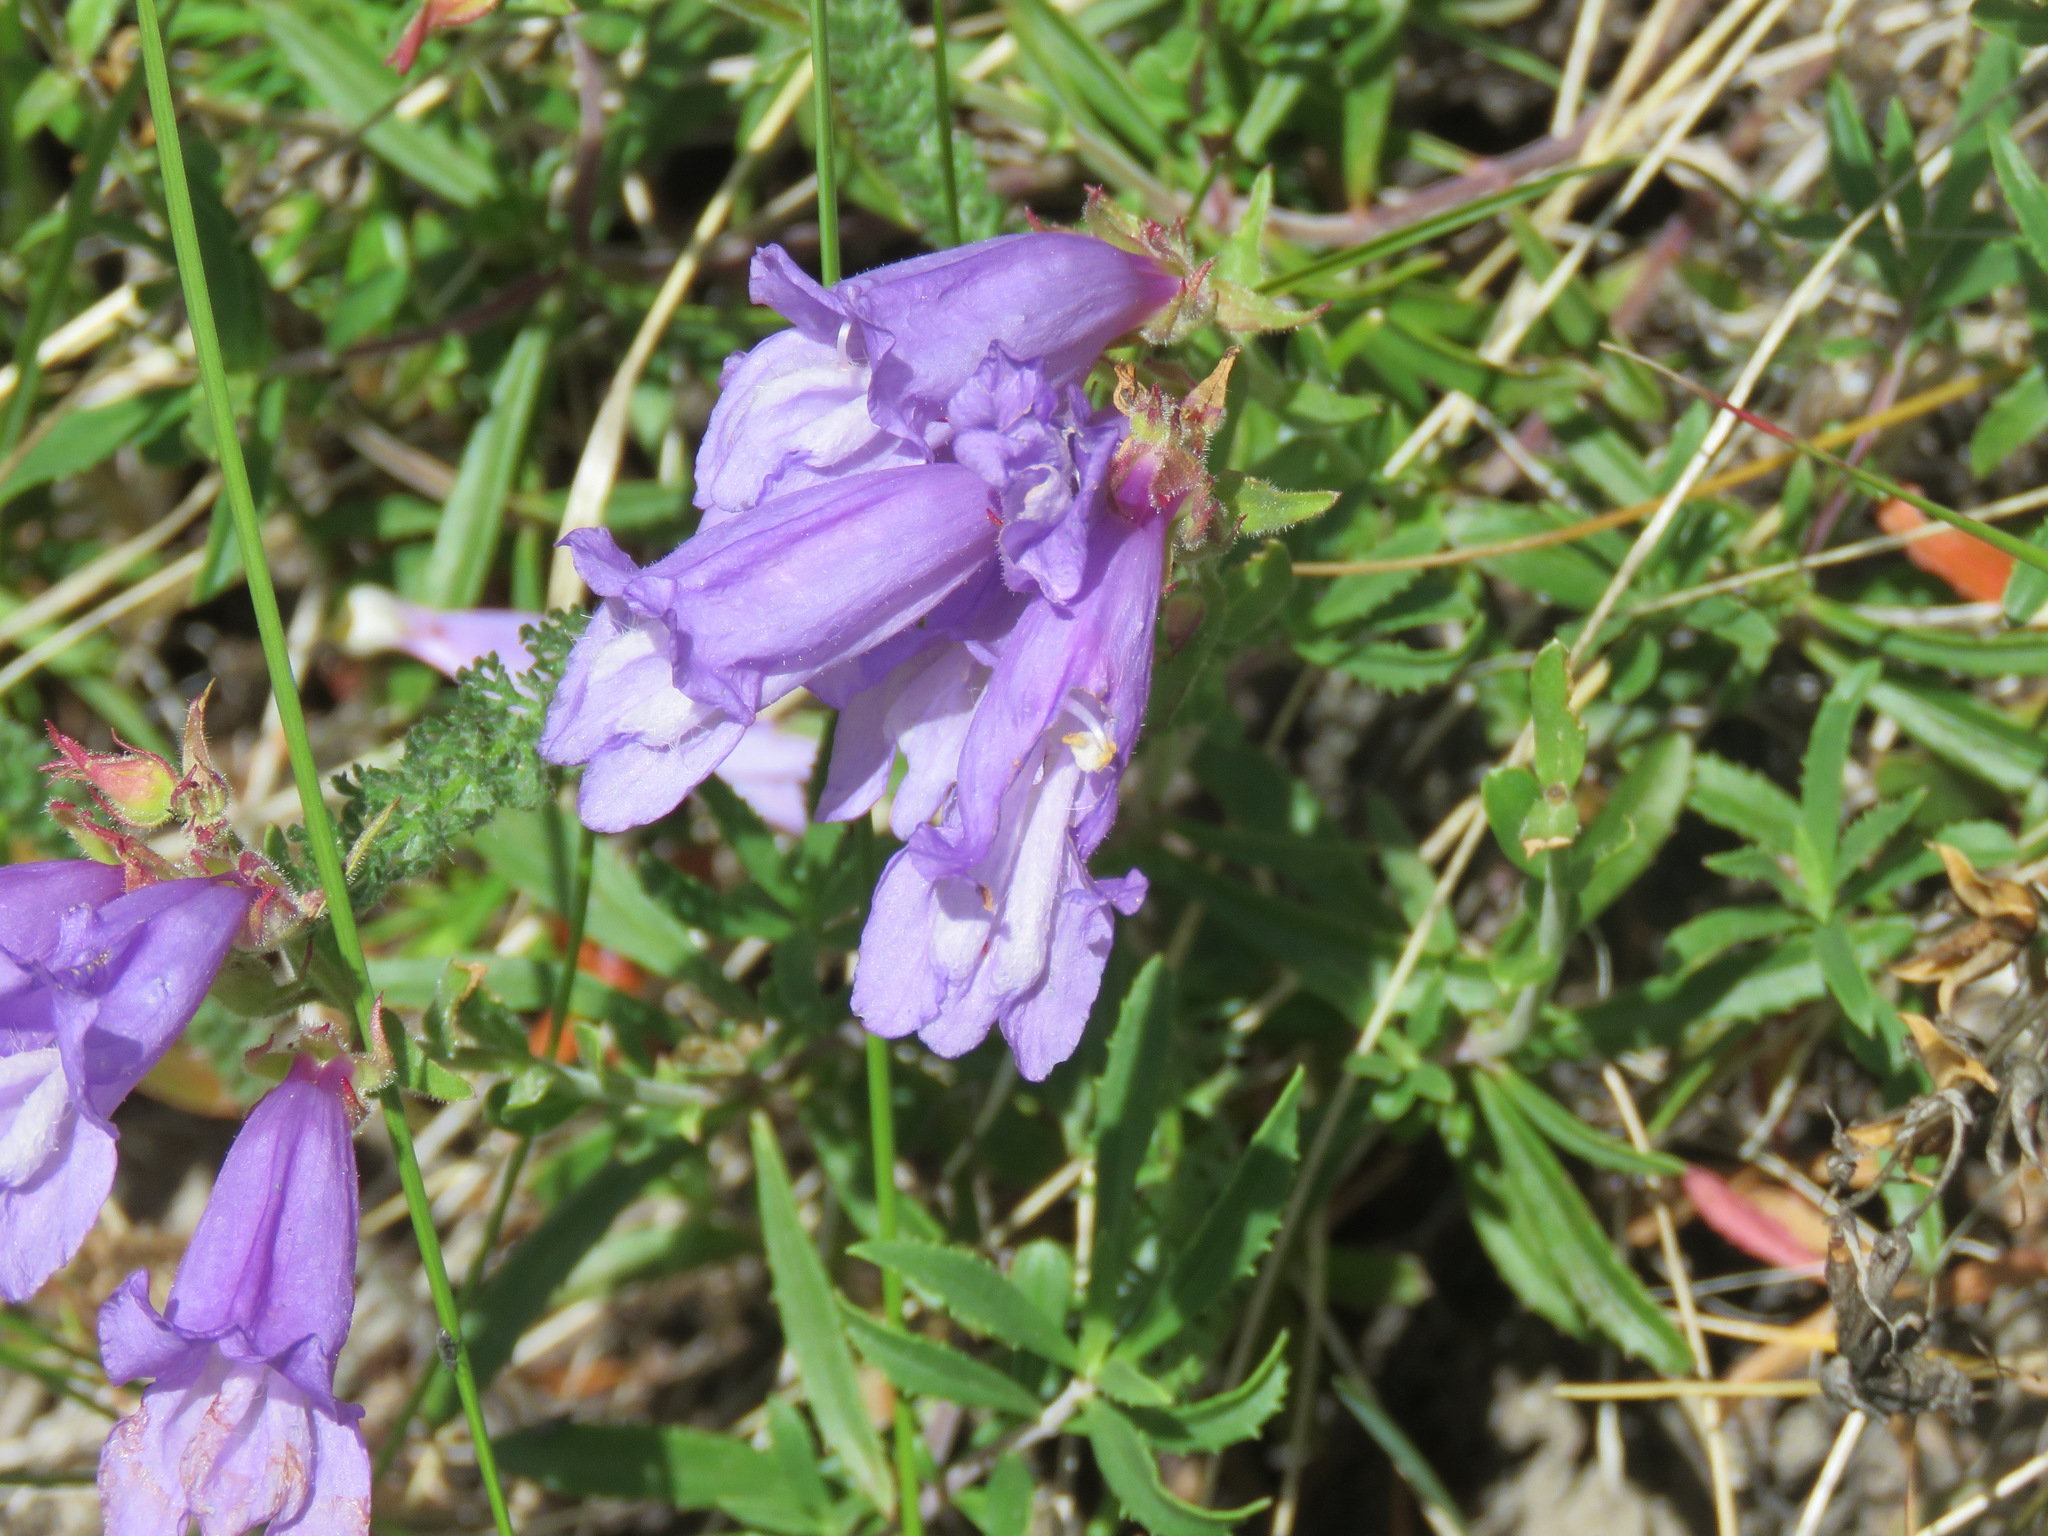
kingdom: Plantae
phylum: Tracheophyta
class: Magnoliopsida
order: Lamiales
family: Plantaginaceae
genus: Penstemon
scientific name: Penstemon fruticosus
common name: Bush penstemon
